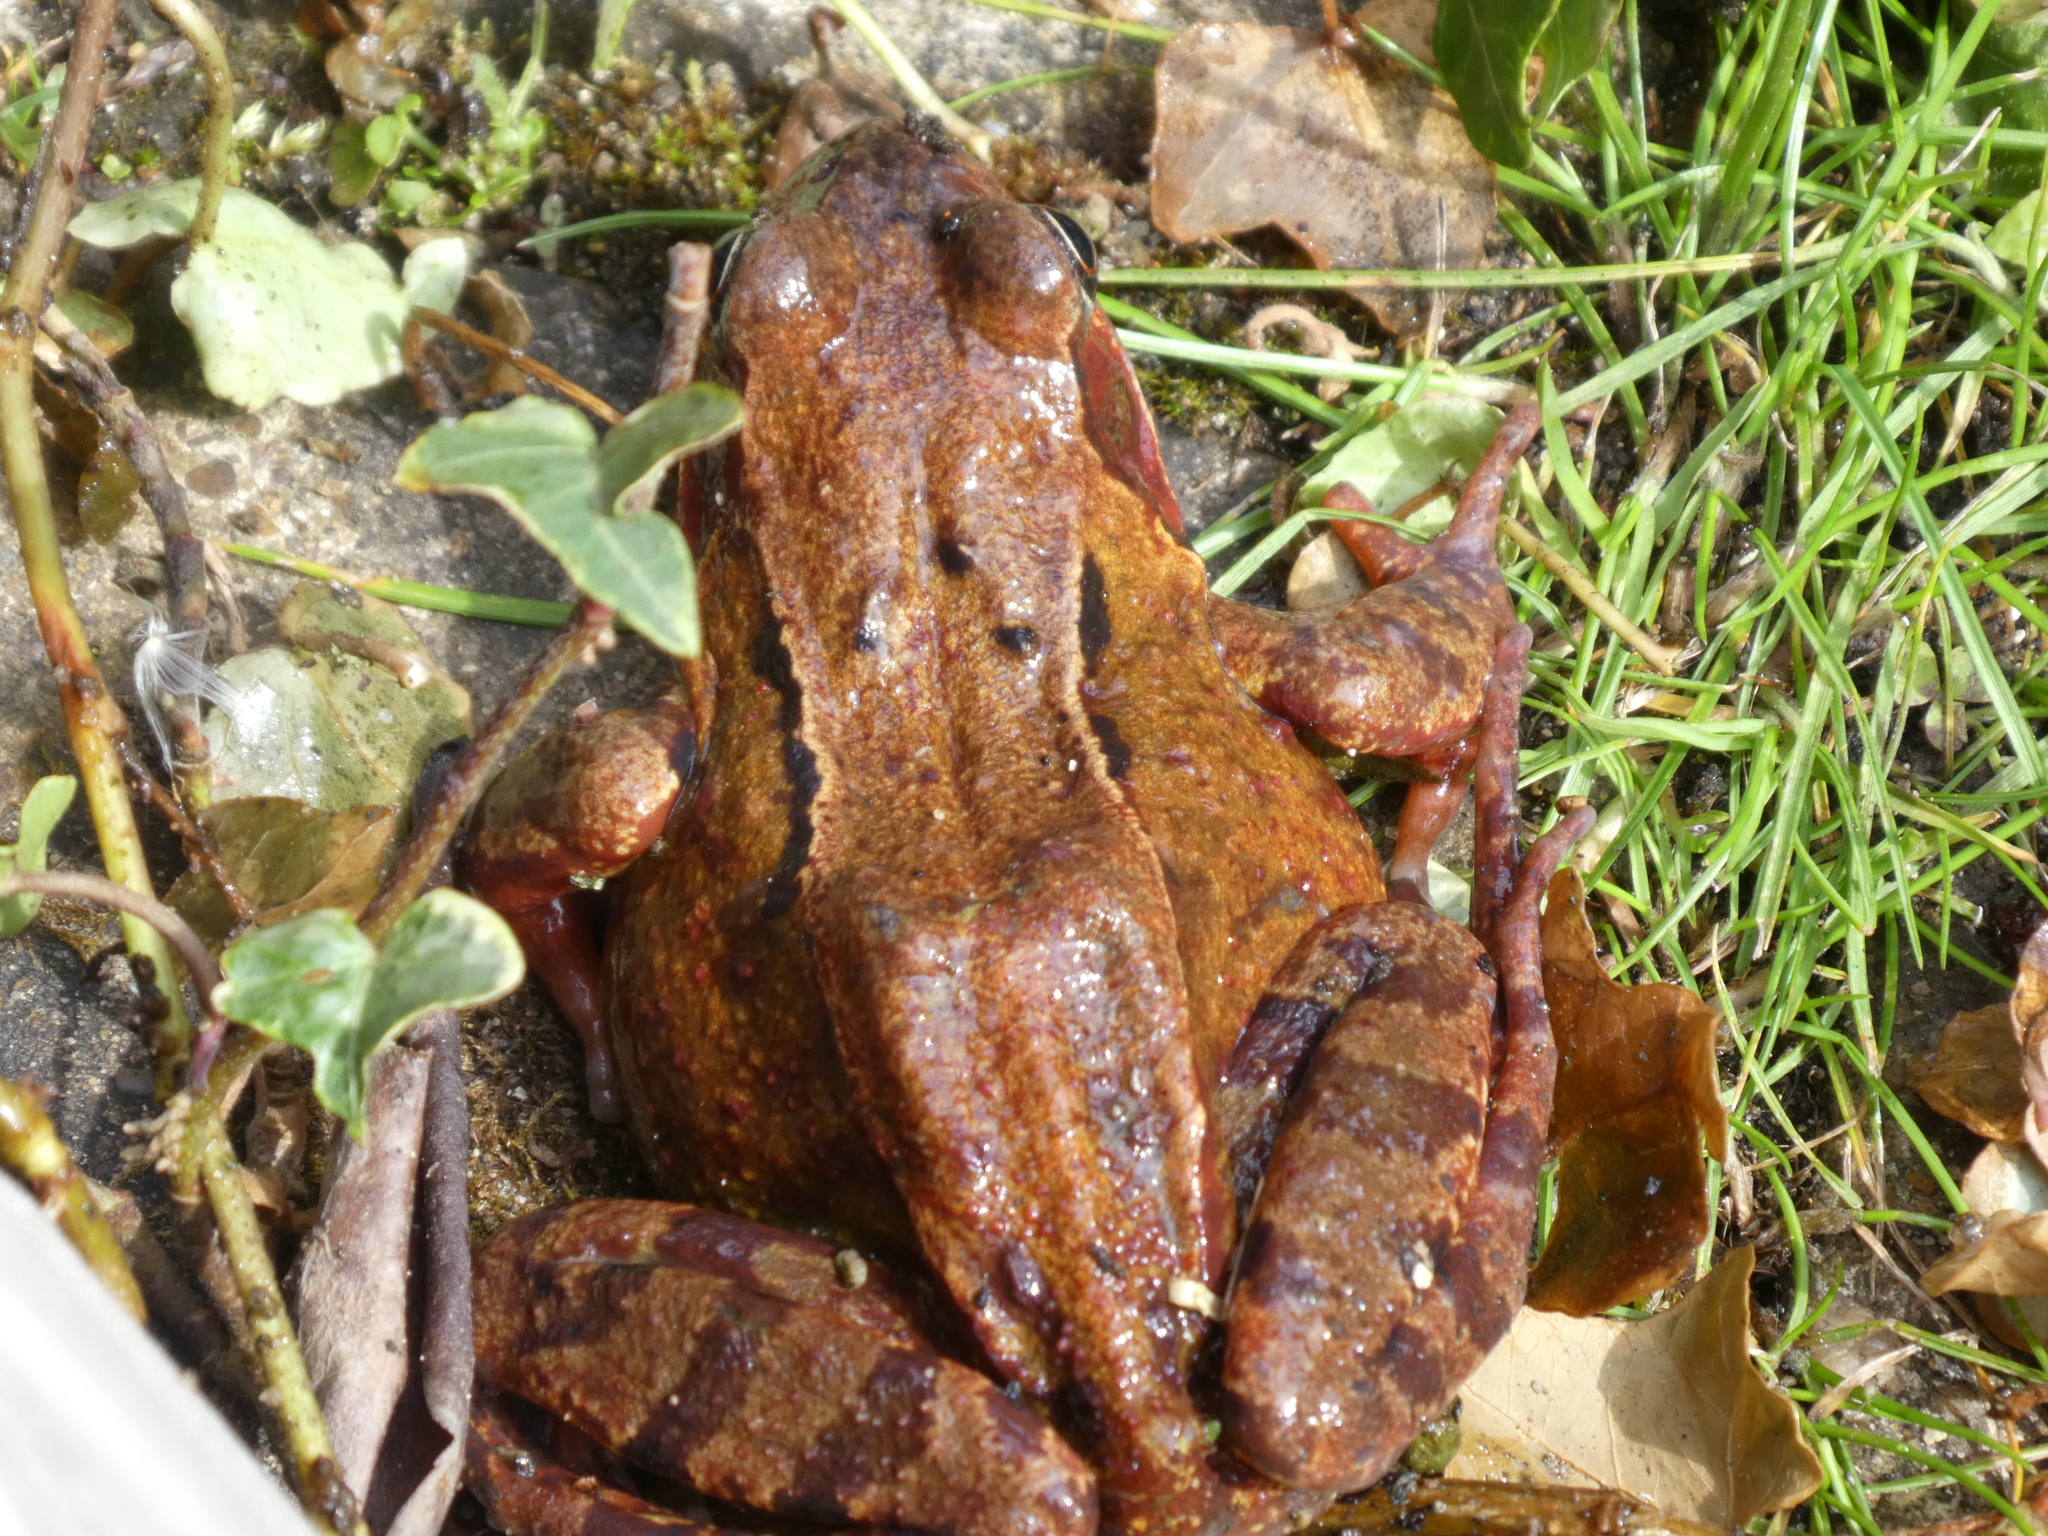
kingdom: Animalia
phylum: Chordata
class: Amphibia
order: Anura
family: Ranidae
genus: Rana
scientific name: Rana temporaria
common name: Common frog
